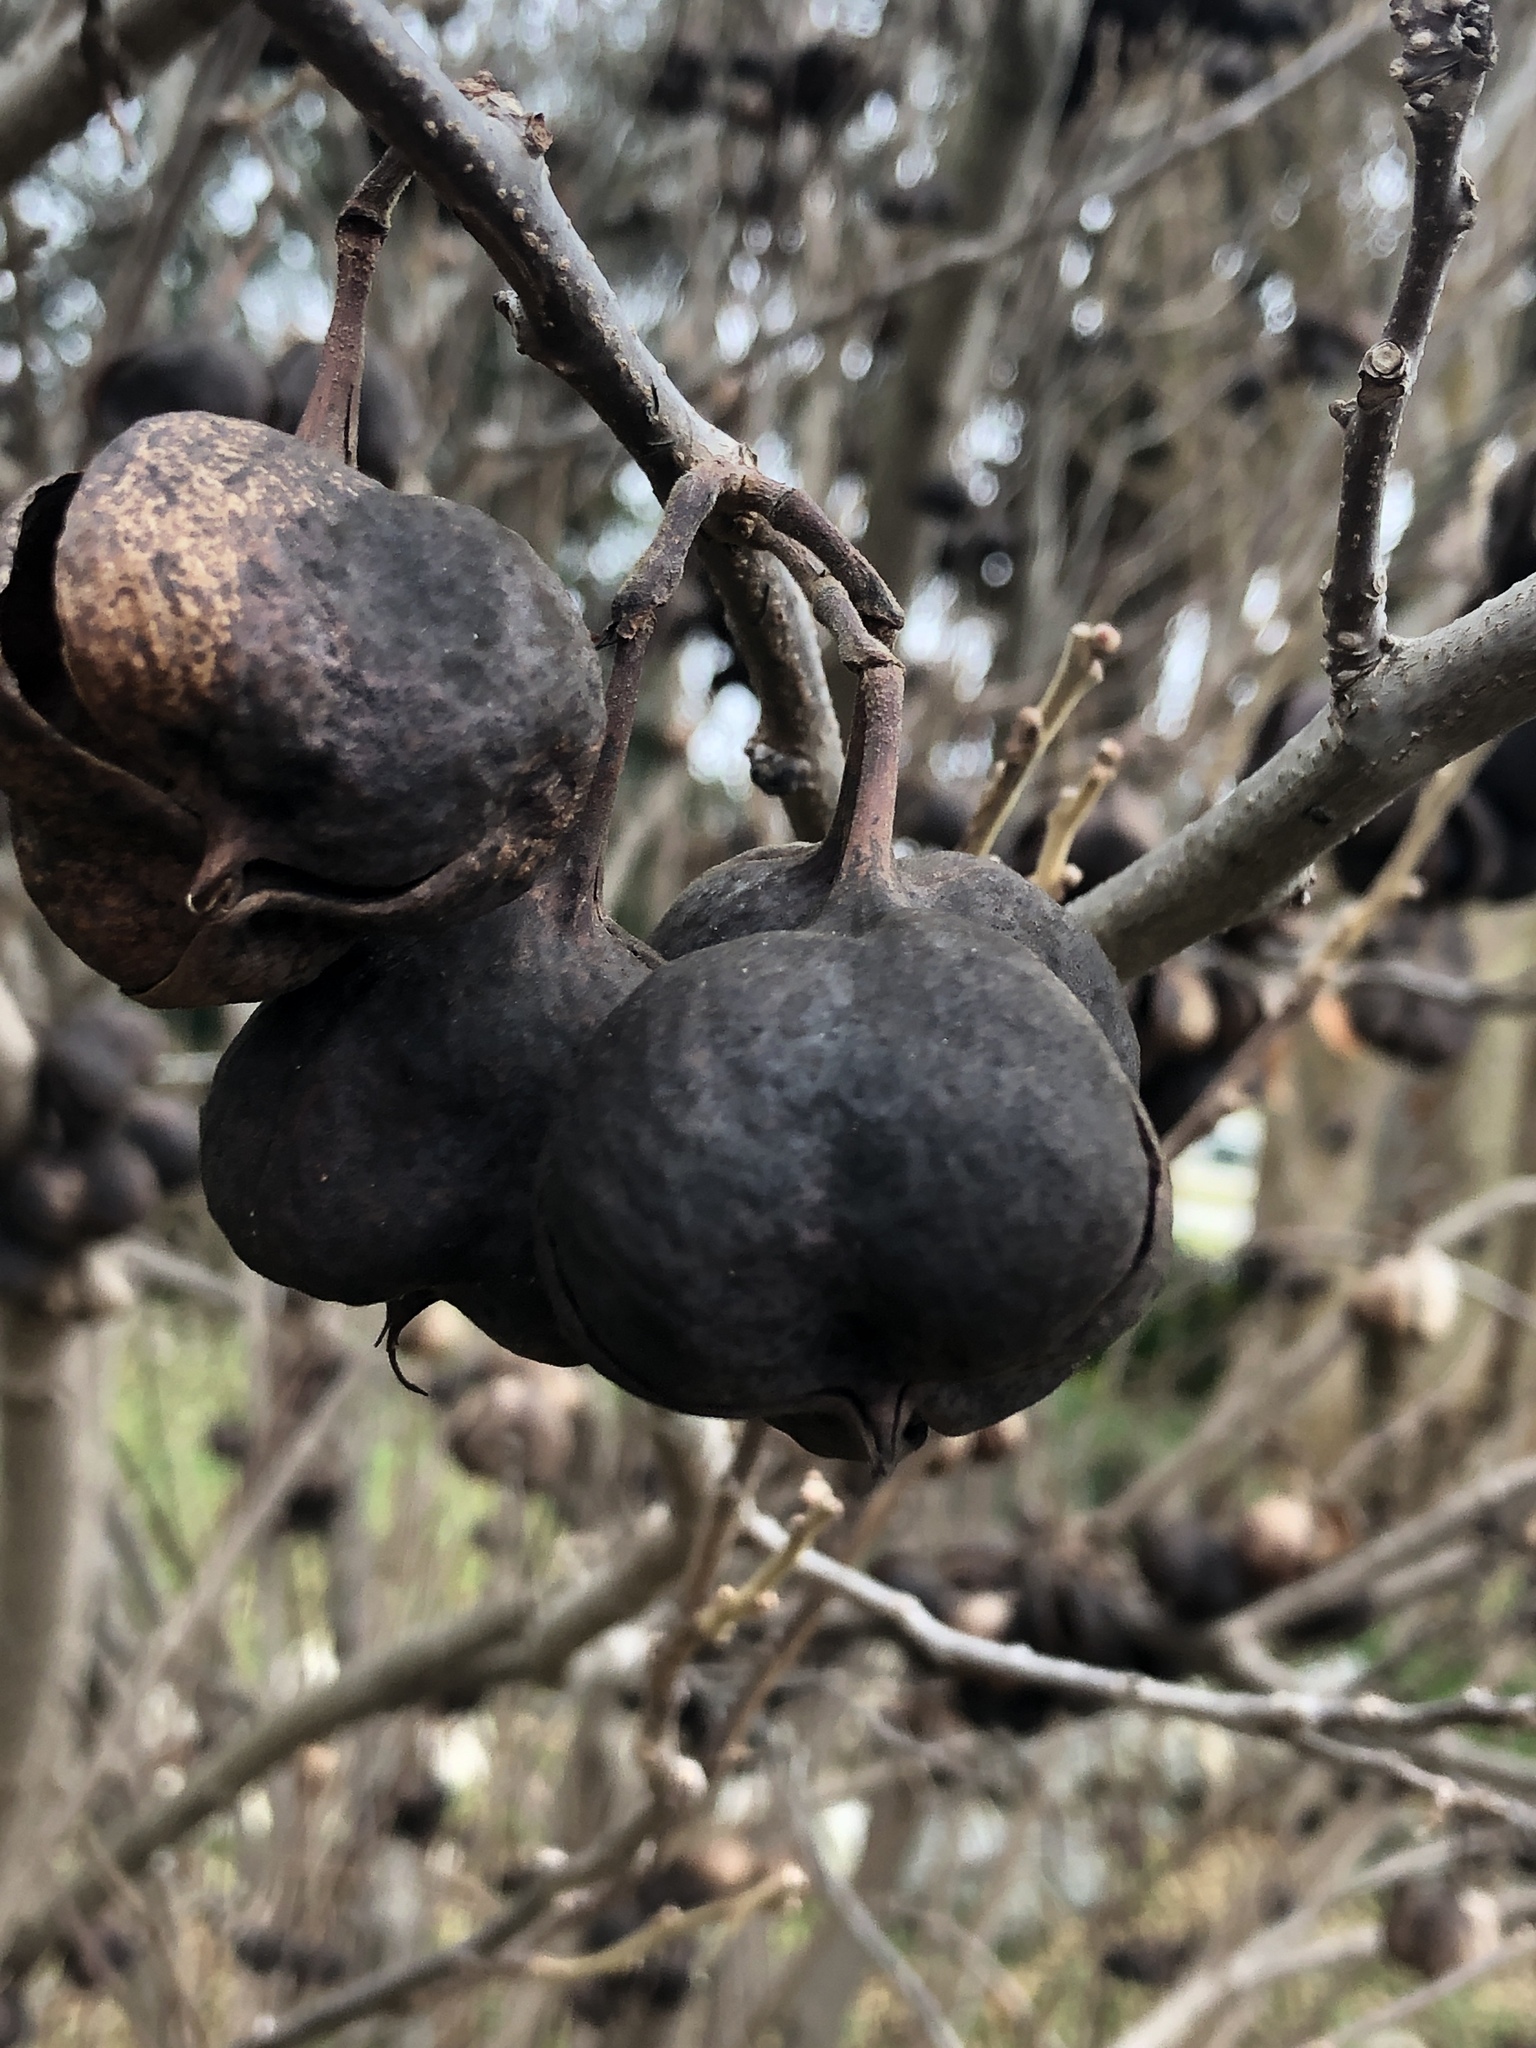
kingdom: Plantae
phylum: Tracheophyta
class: Magnoliopsida
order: Sapindales
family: Sapindaceae
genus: Ungnadia
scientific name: Ungnadia speciosa
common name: Texas-buckeye
